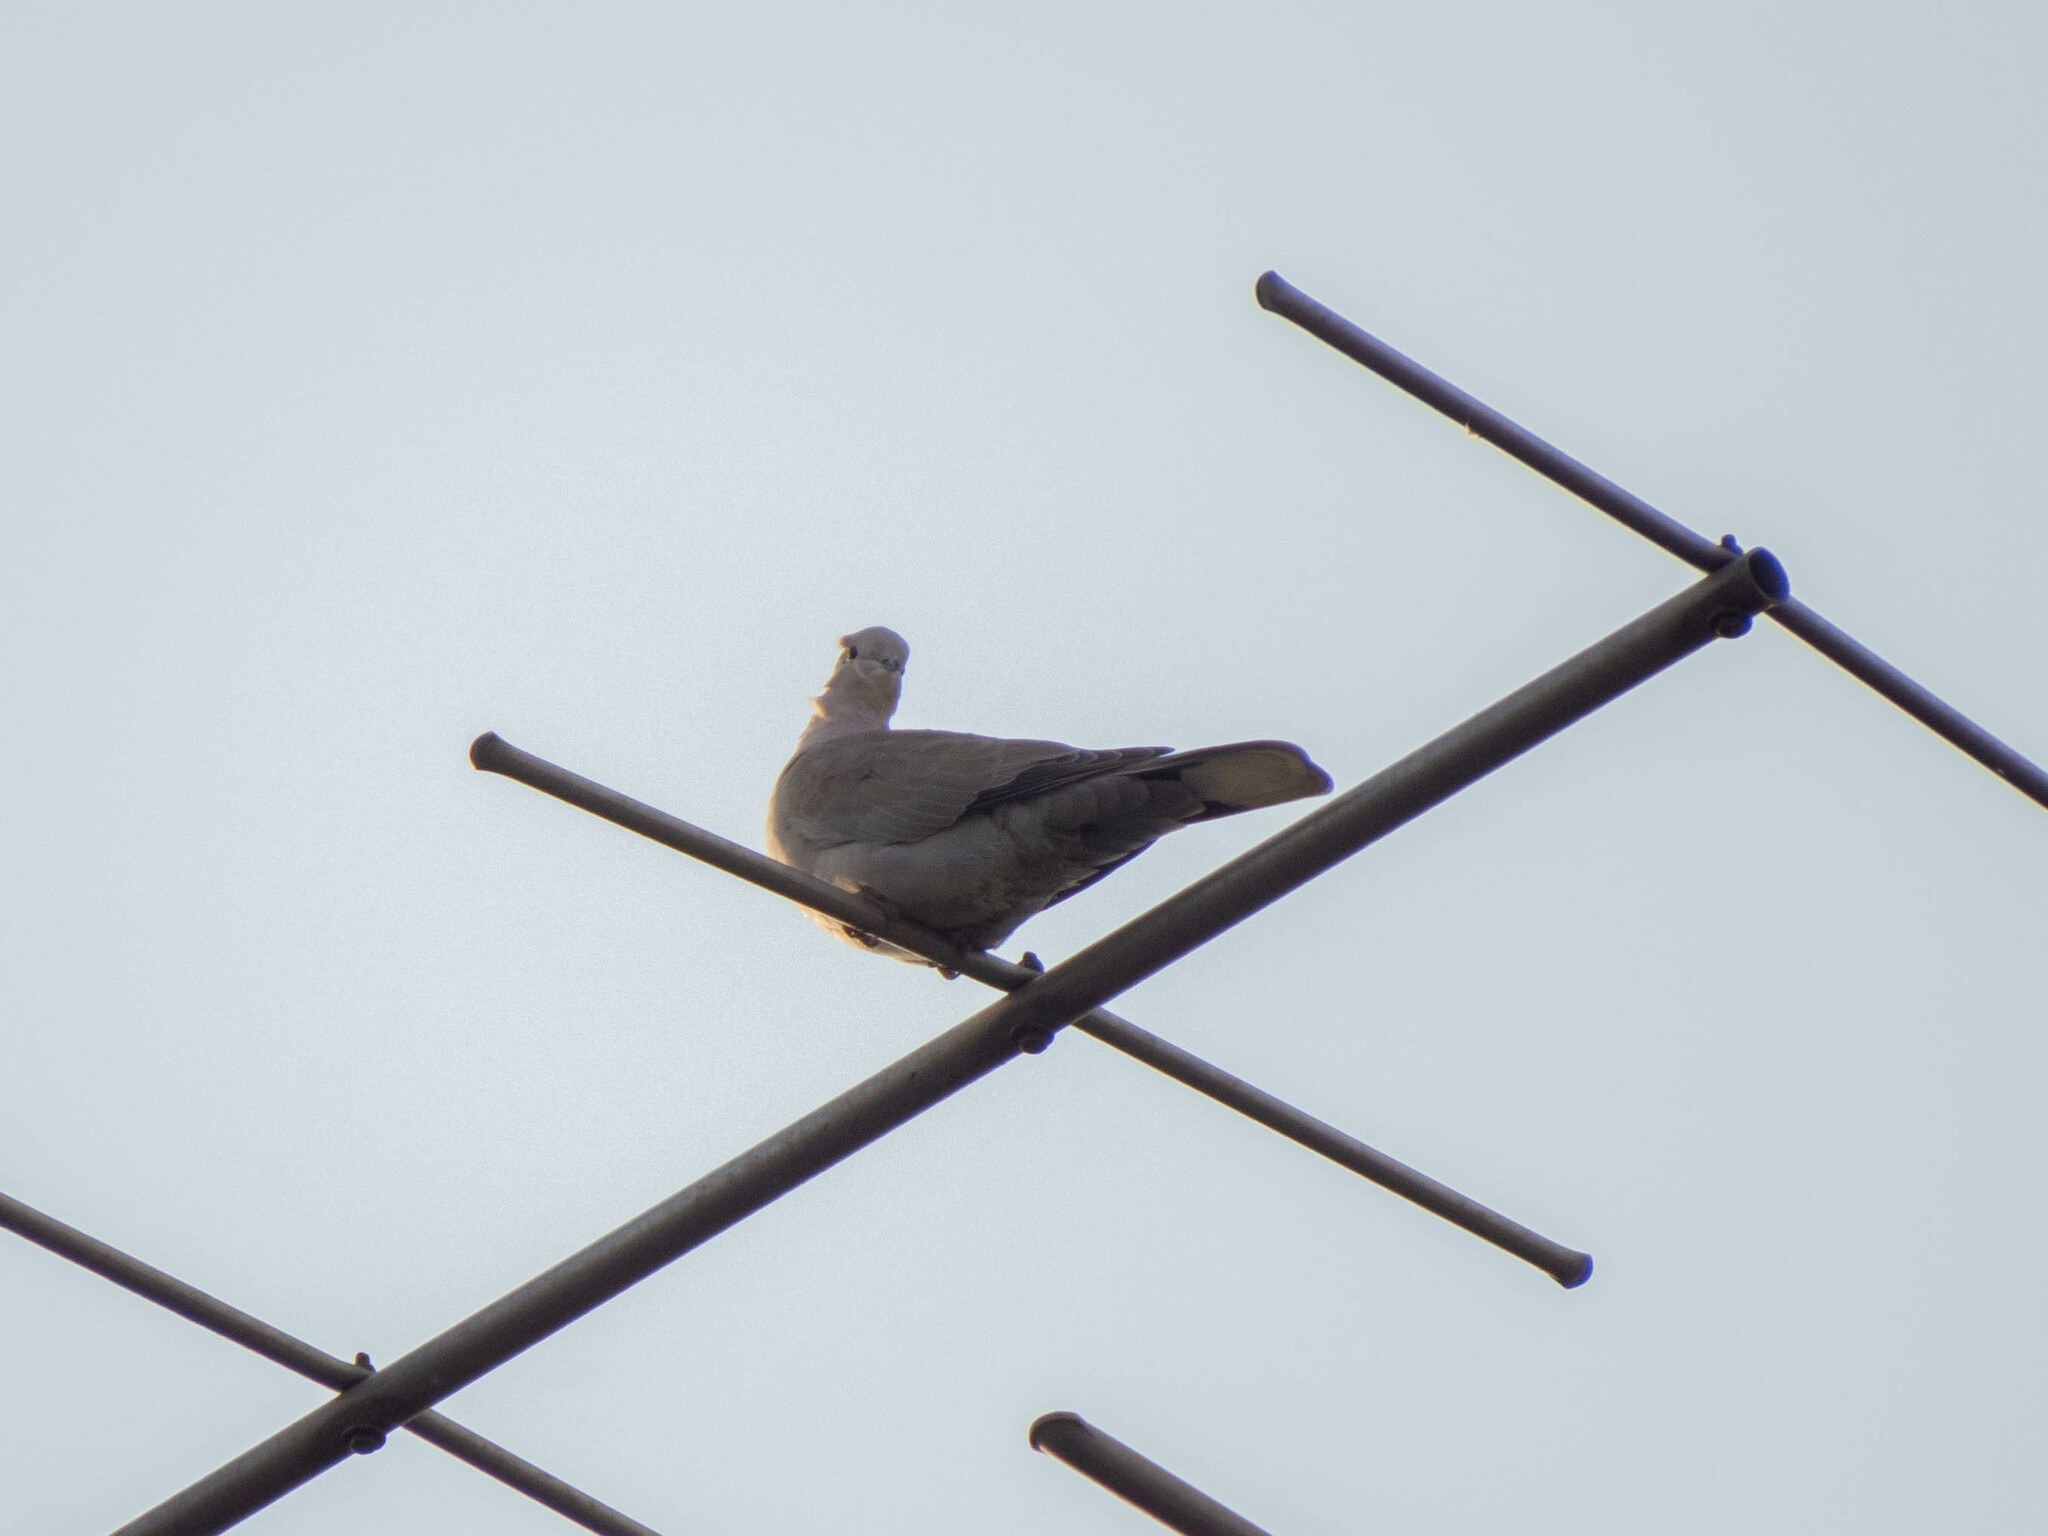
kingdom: Animalia
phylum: Chordata
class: Aves
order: Columbiformes
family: Columbidae
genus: Streptopelia
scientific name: Streptopelia decaocto
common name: Eurasian collared dove
